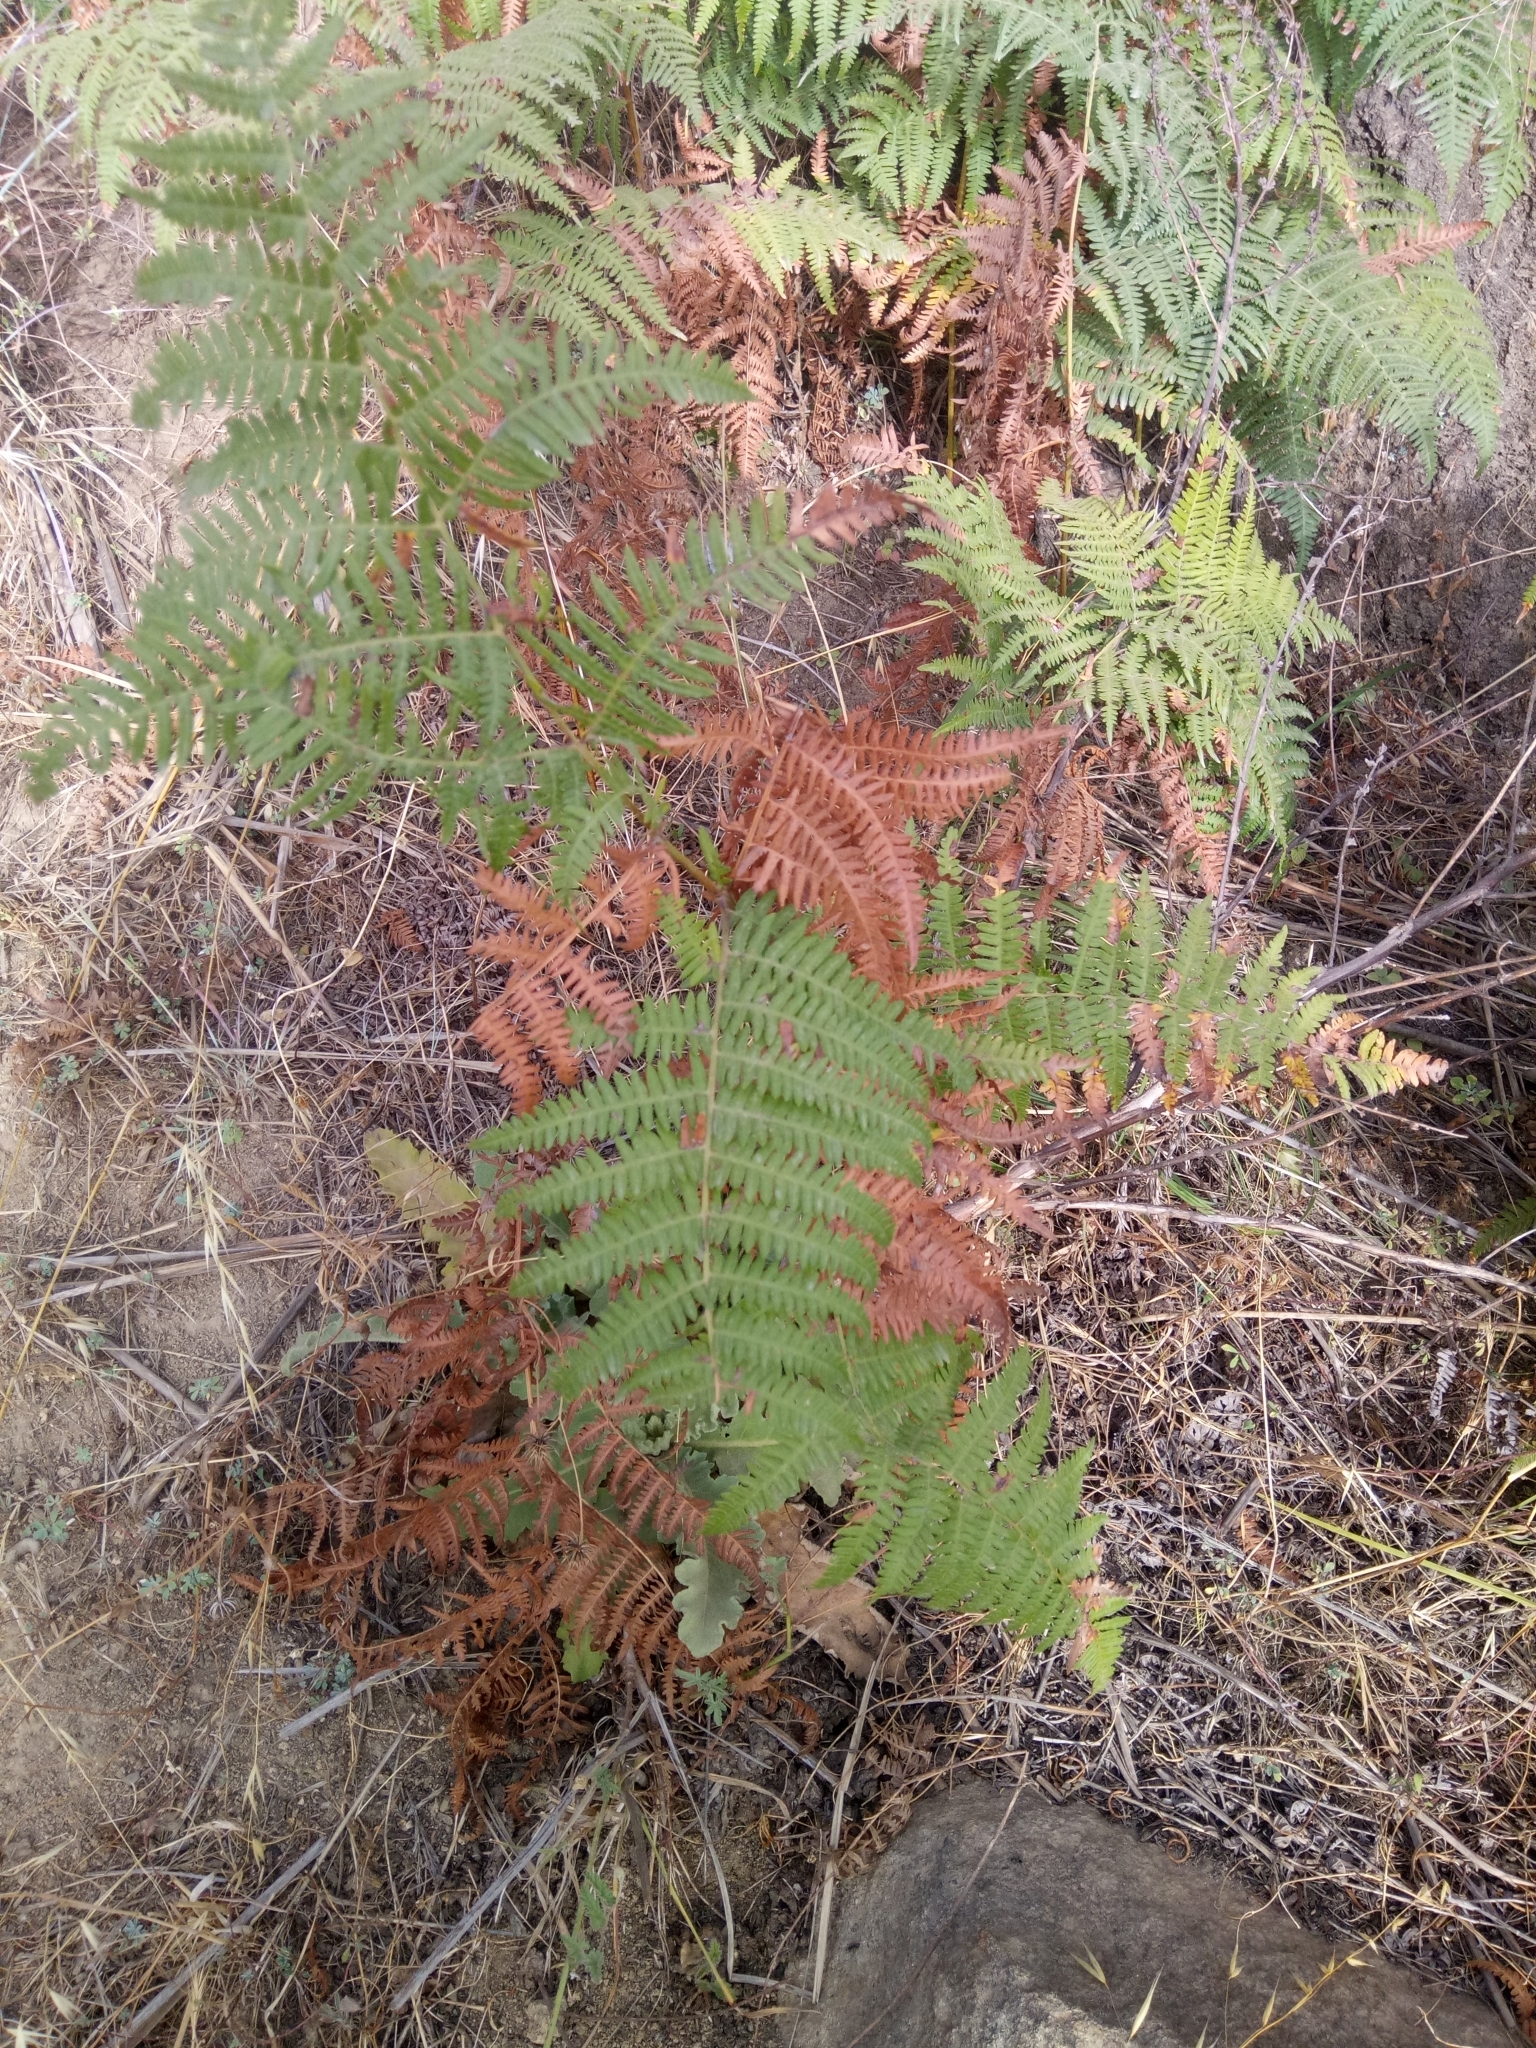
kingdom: Plantae
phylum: Tracheophyta
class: Polypodiopsida
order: Polypodiales
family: Dennstaedtiaceae
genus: Pteridium
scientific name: Pteridium aquilinum
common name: Bracken
